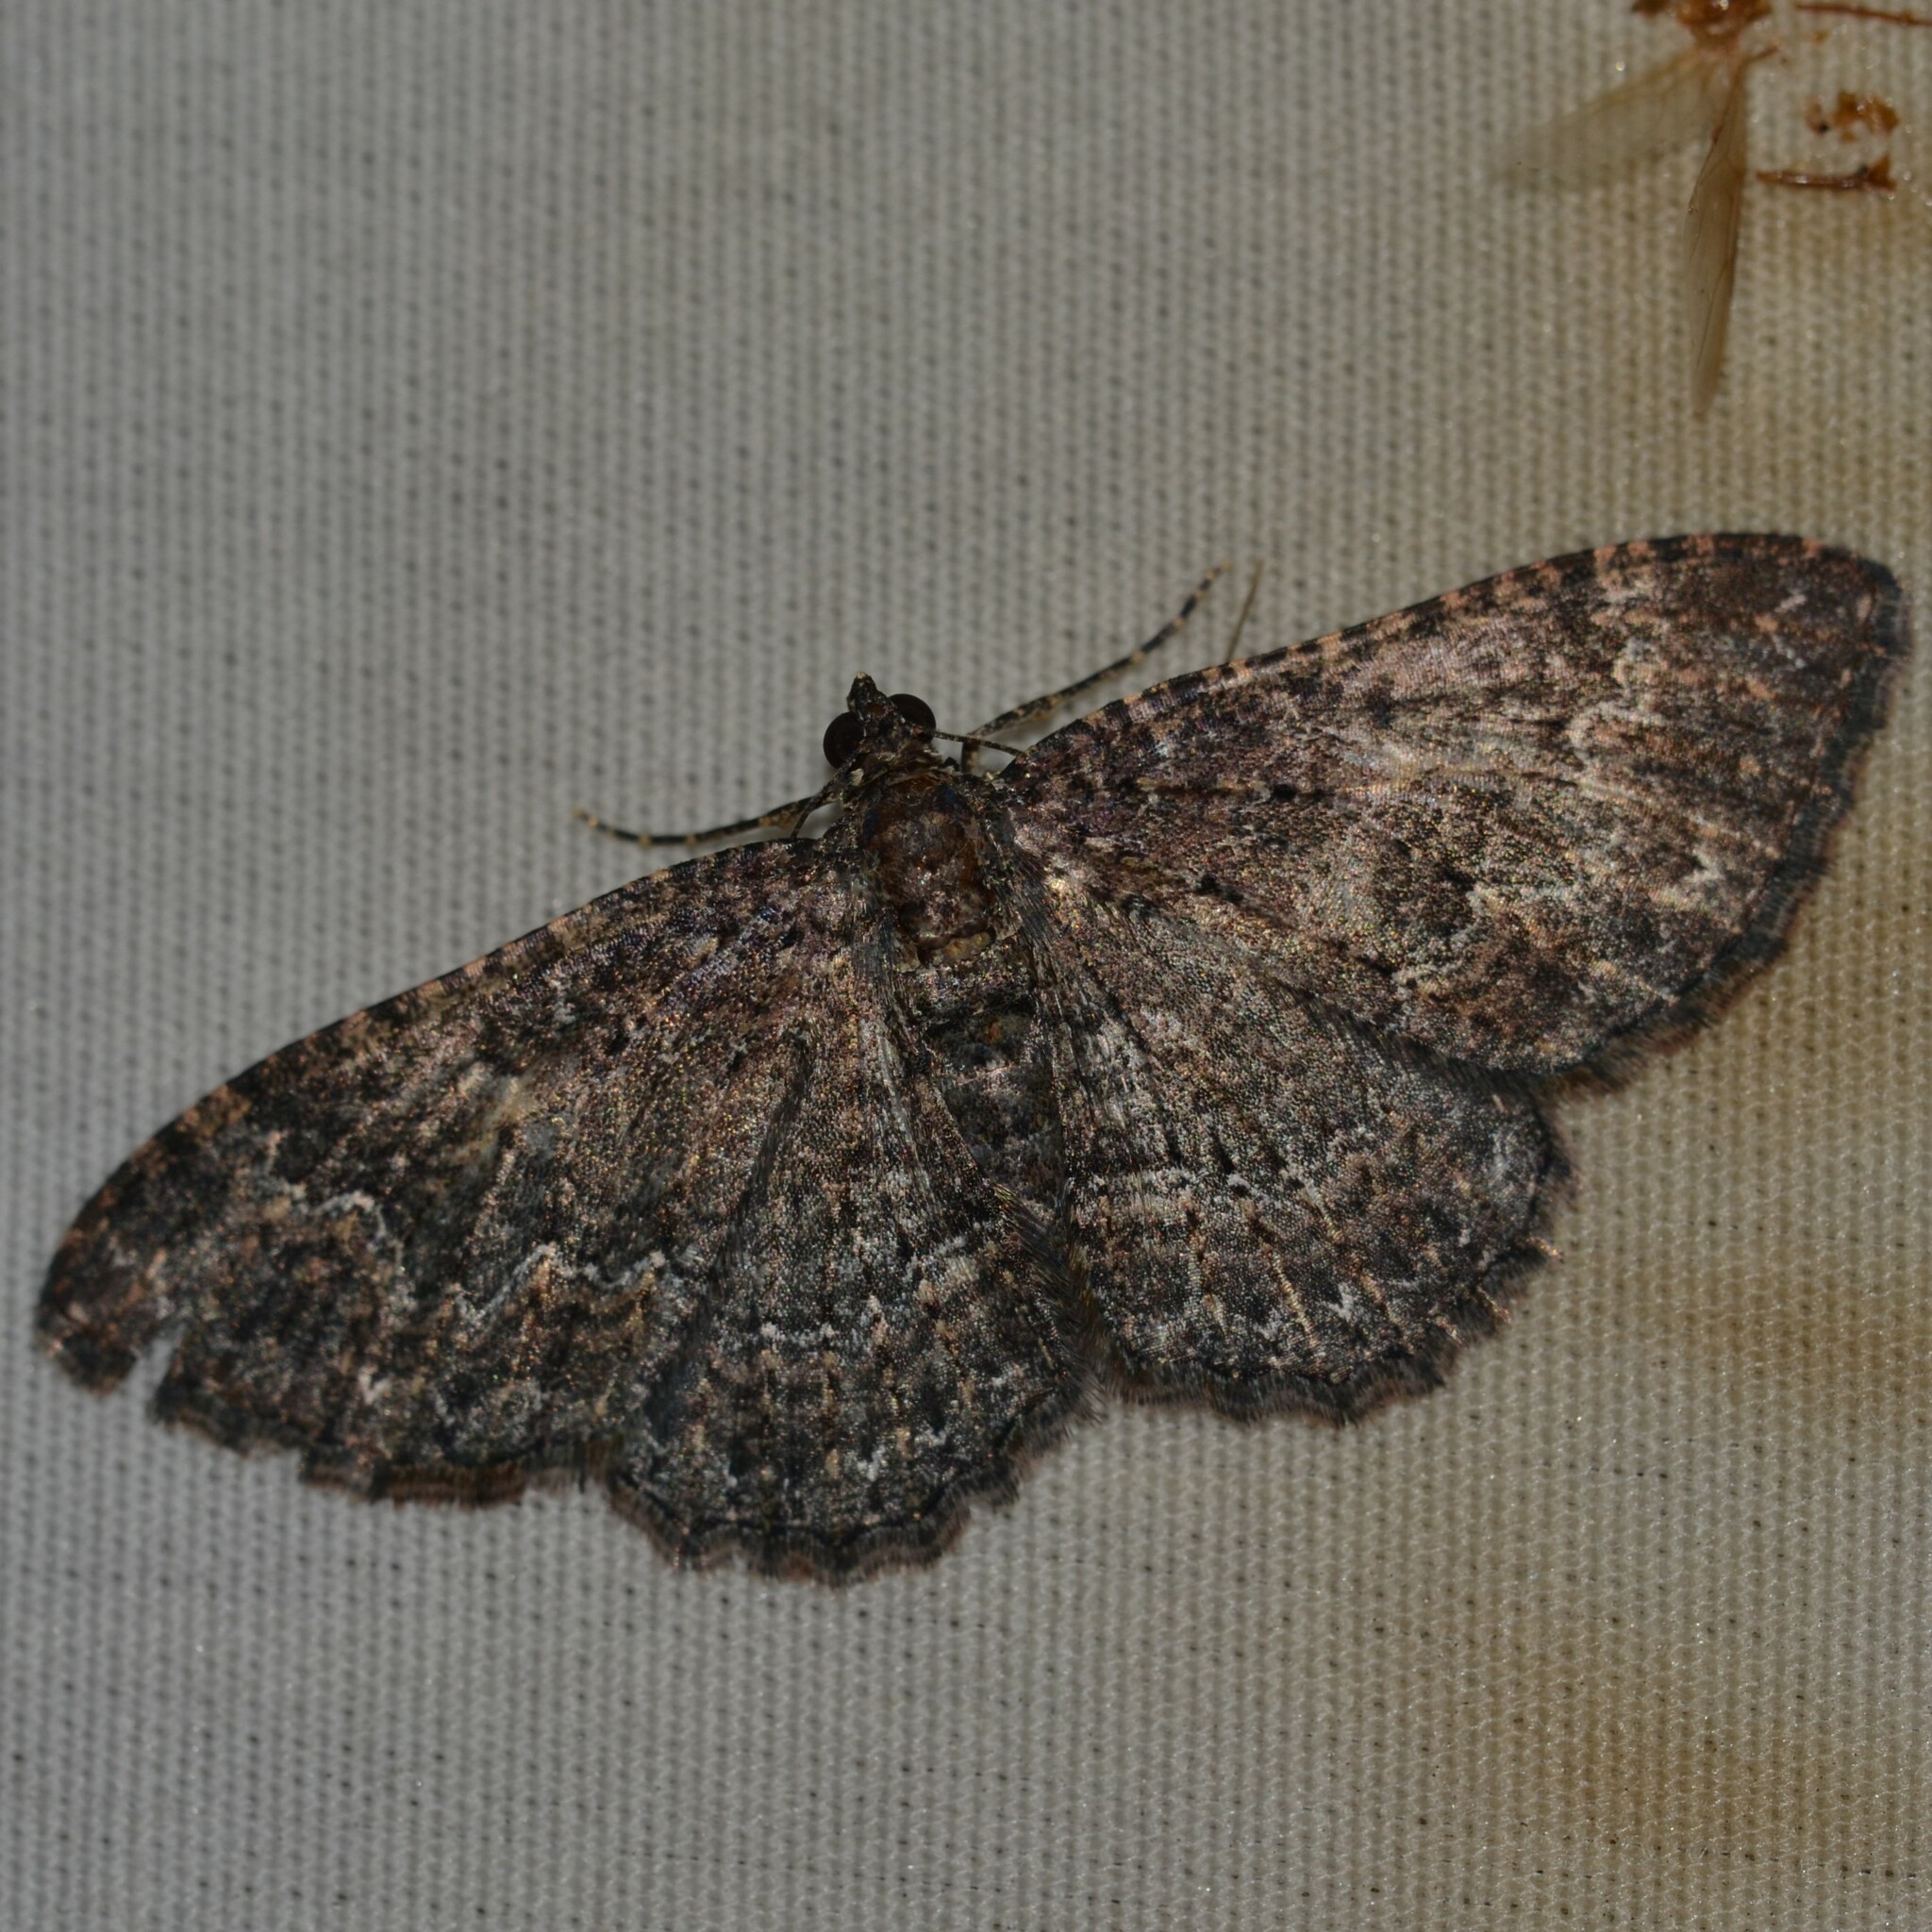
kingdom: Animalia
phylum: Arthropoda
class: Insecta
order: Lepidoptera
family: Geometridae
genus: Disclisioprocta
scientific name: Disclisioprocta stellata
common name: Somber carpet
